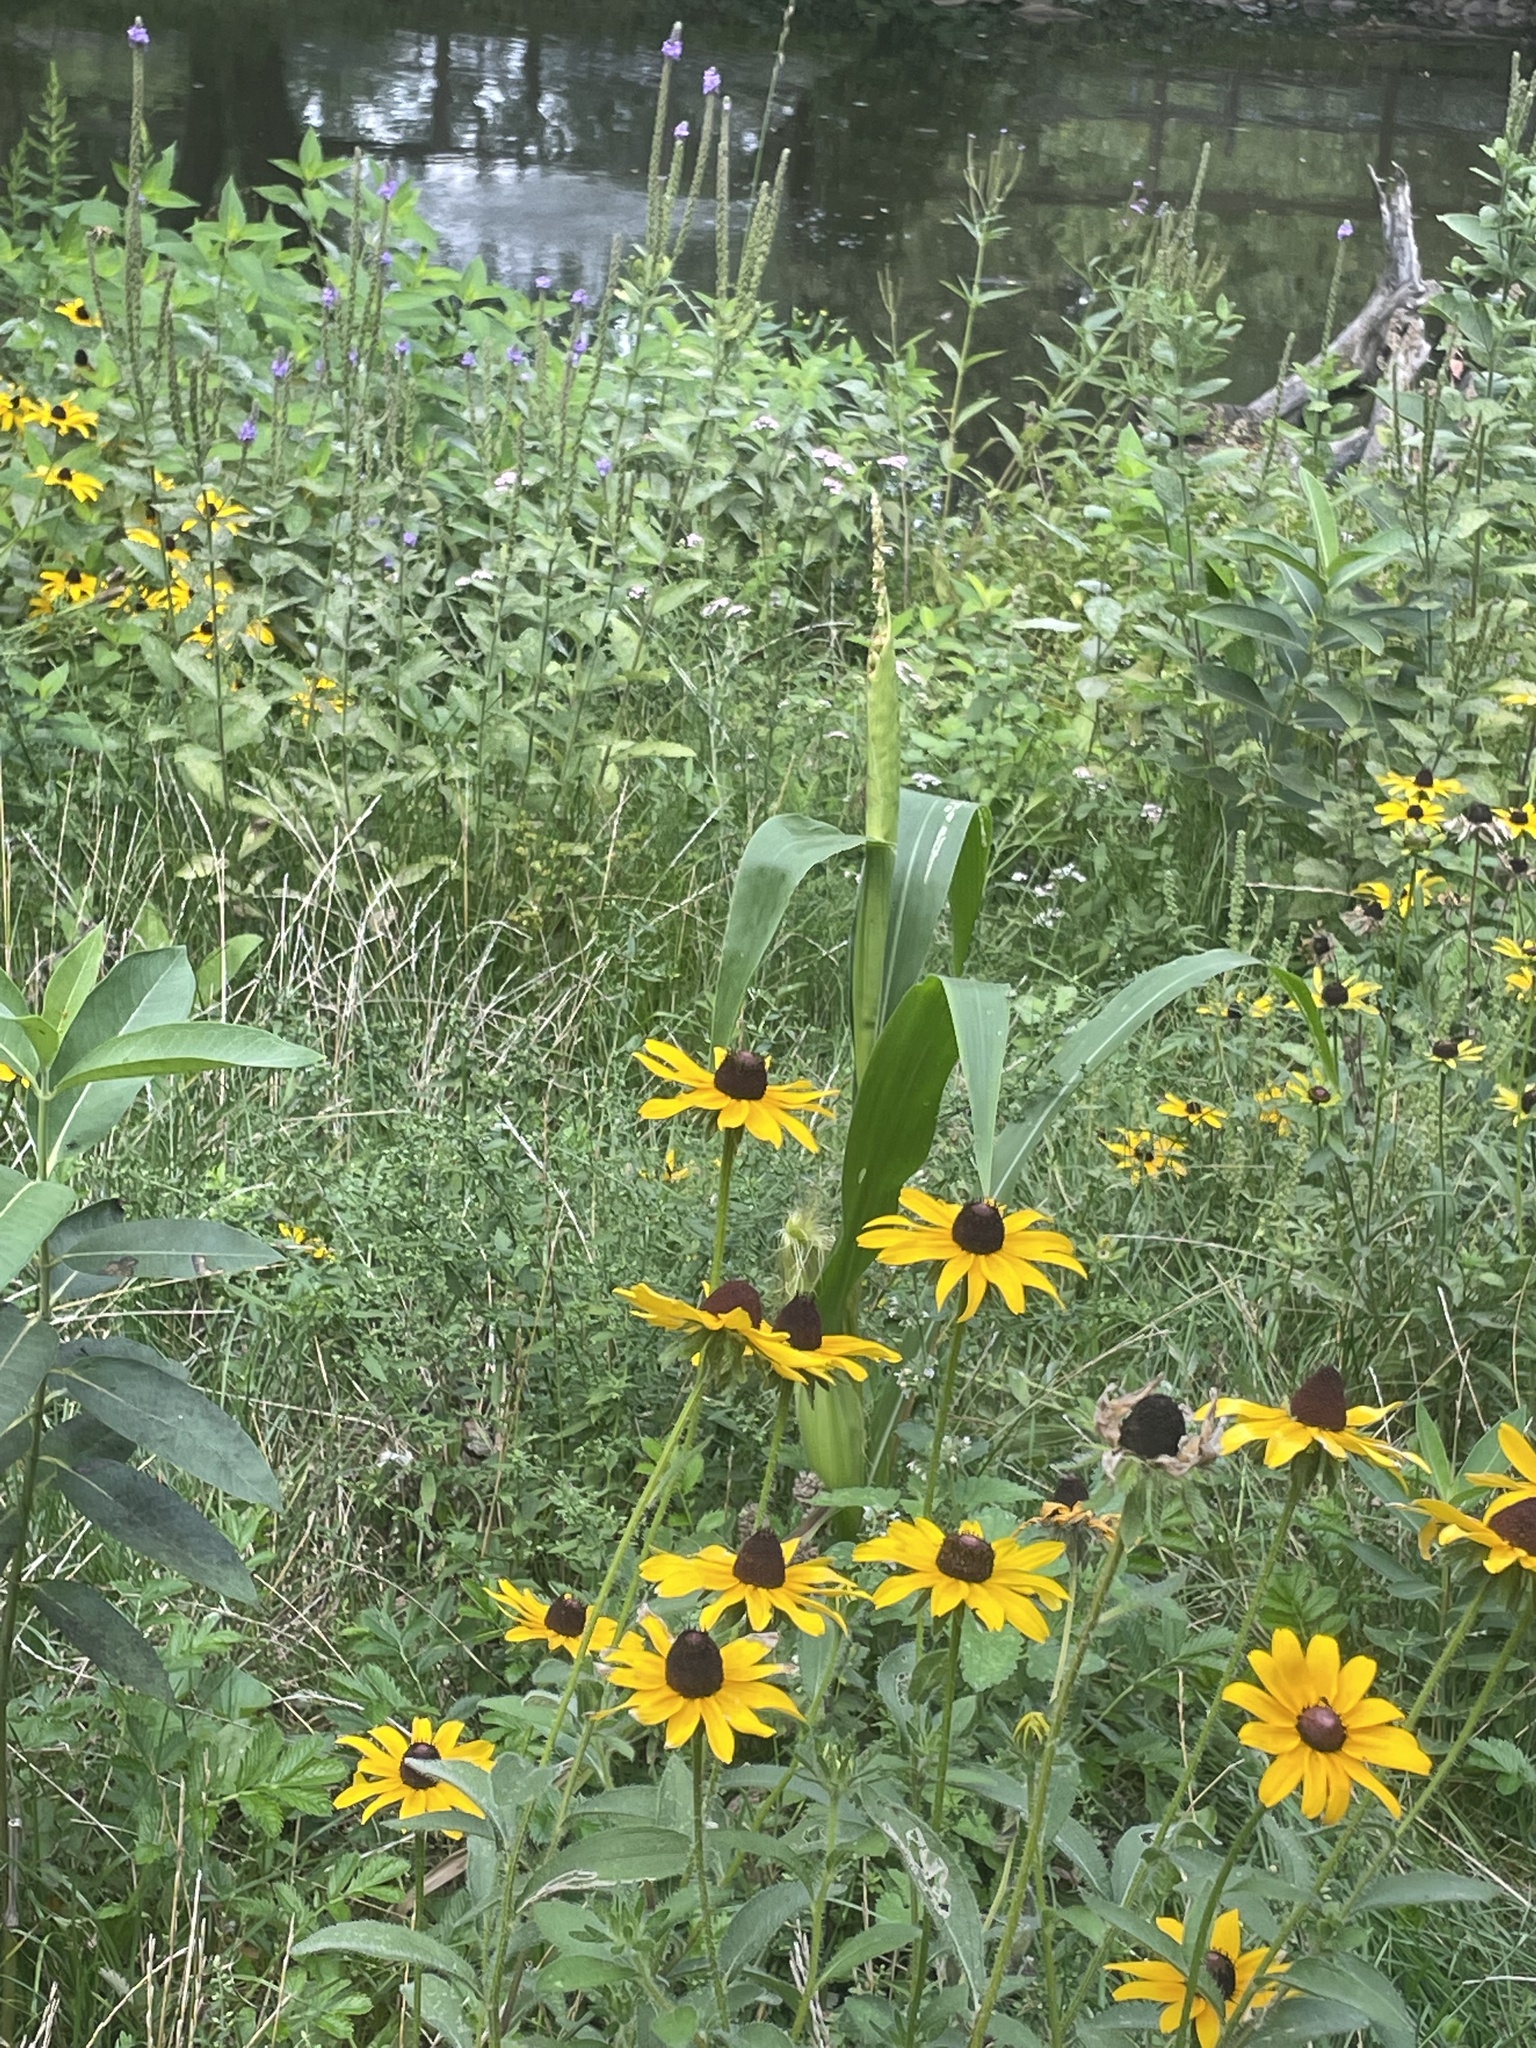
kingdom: Plantae
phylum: Tracheophyta
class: Magnoliopsida
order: Asterales
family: Asteraceae
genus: Rudbeckia
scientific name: Rudbeckia hirta
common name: Black-eyed-susan
